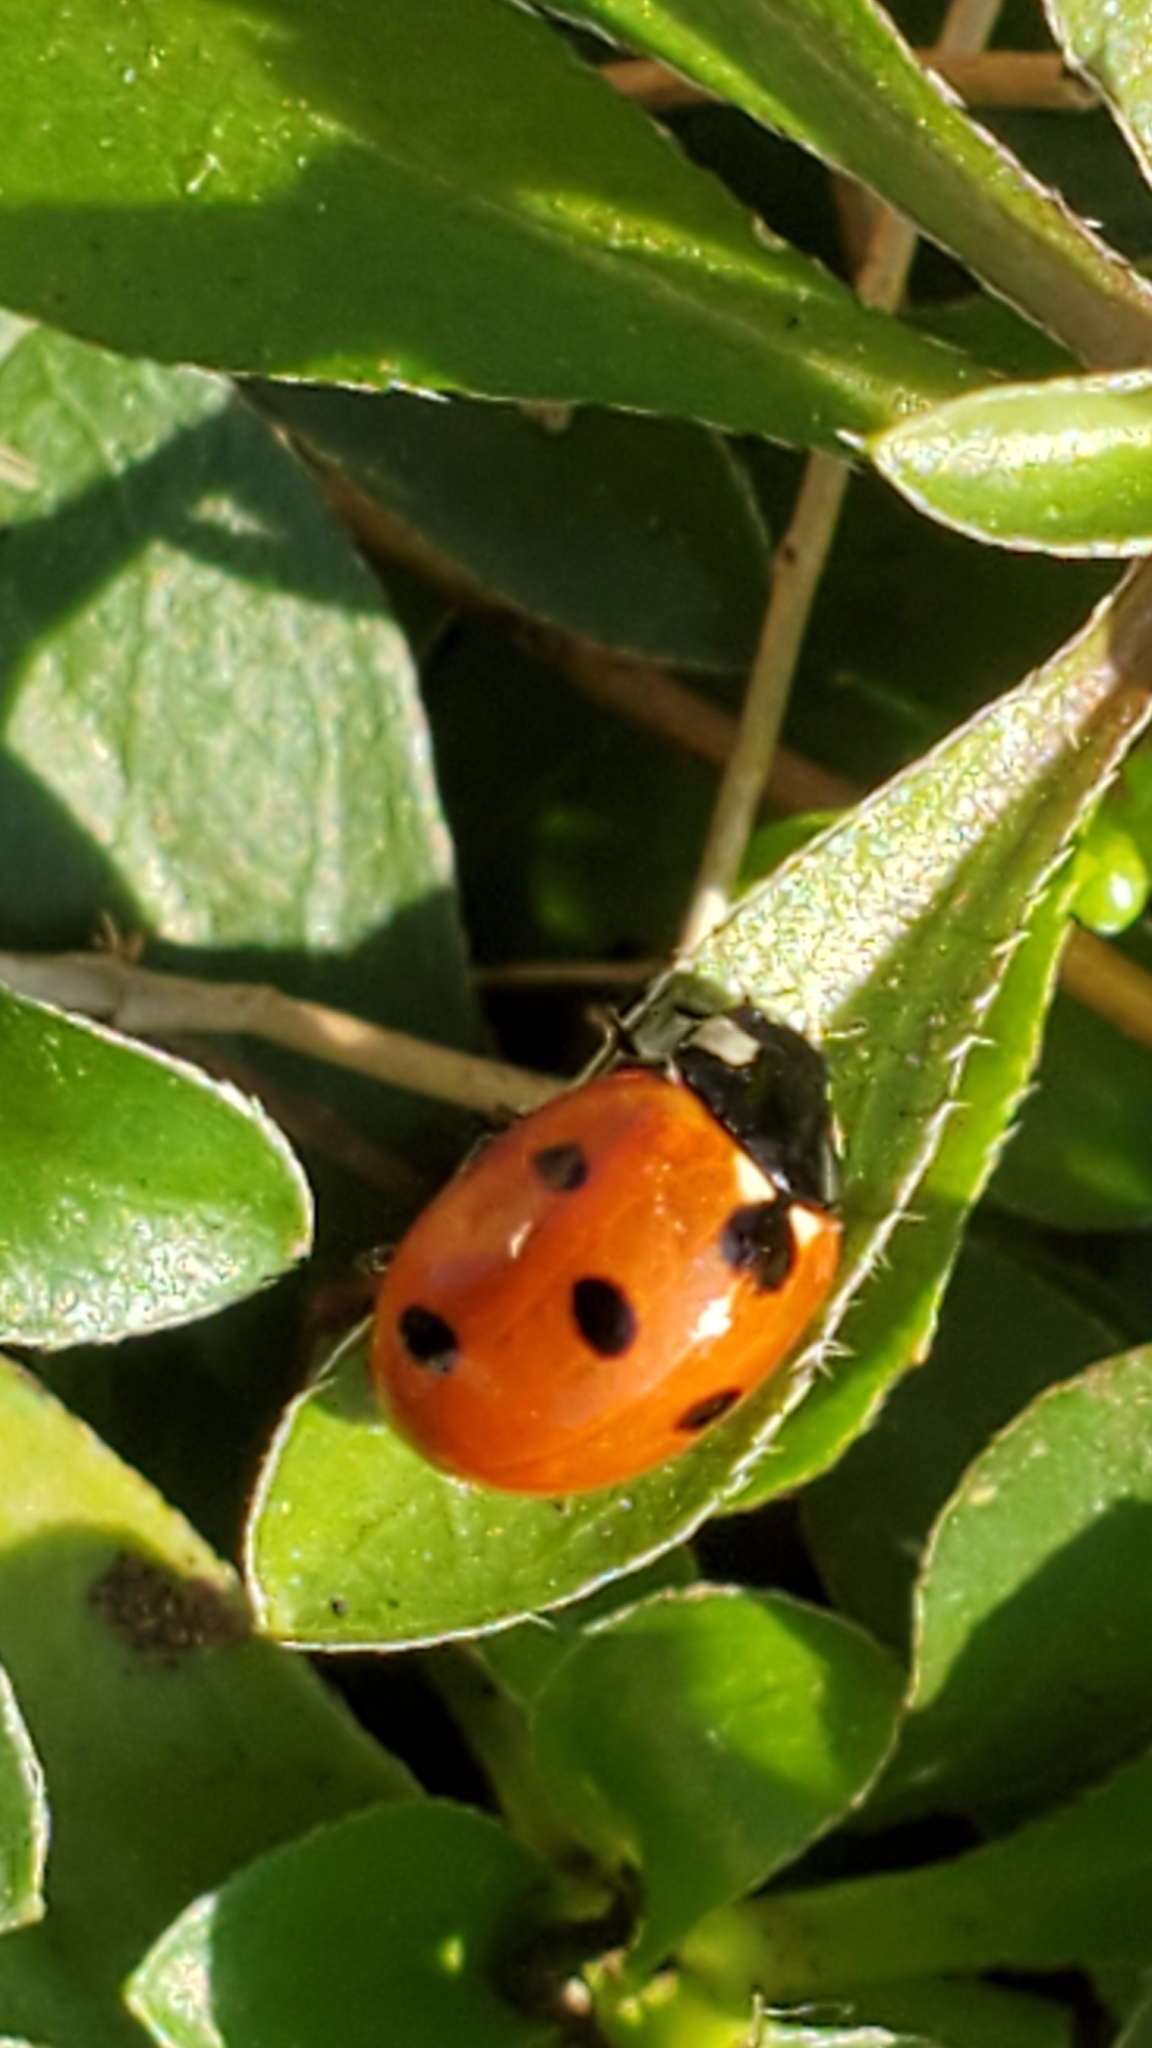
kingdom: Animalia
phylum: Arthropoda
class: Insecta
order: Coleoptera
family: Coccinellidae
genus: Coccinella
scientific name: Coccinella septempunctata
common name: Sevenspotted lady beetle
